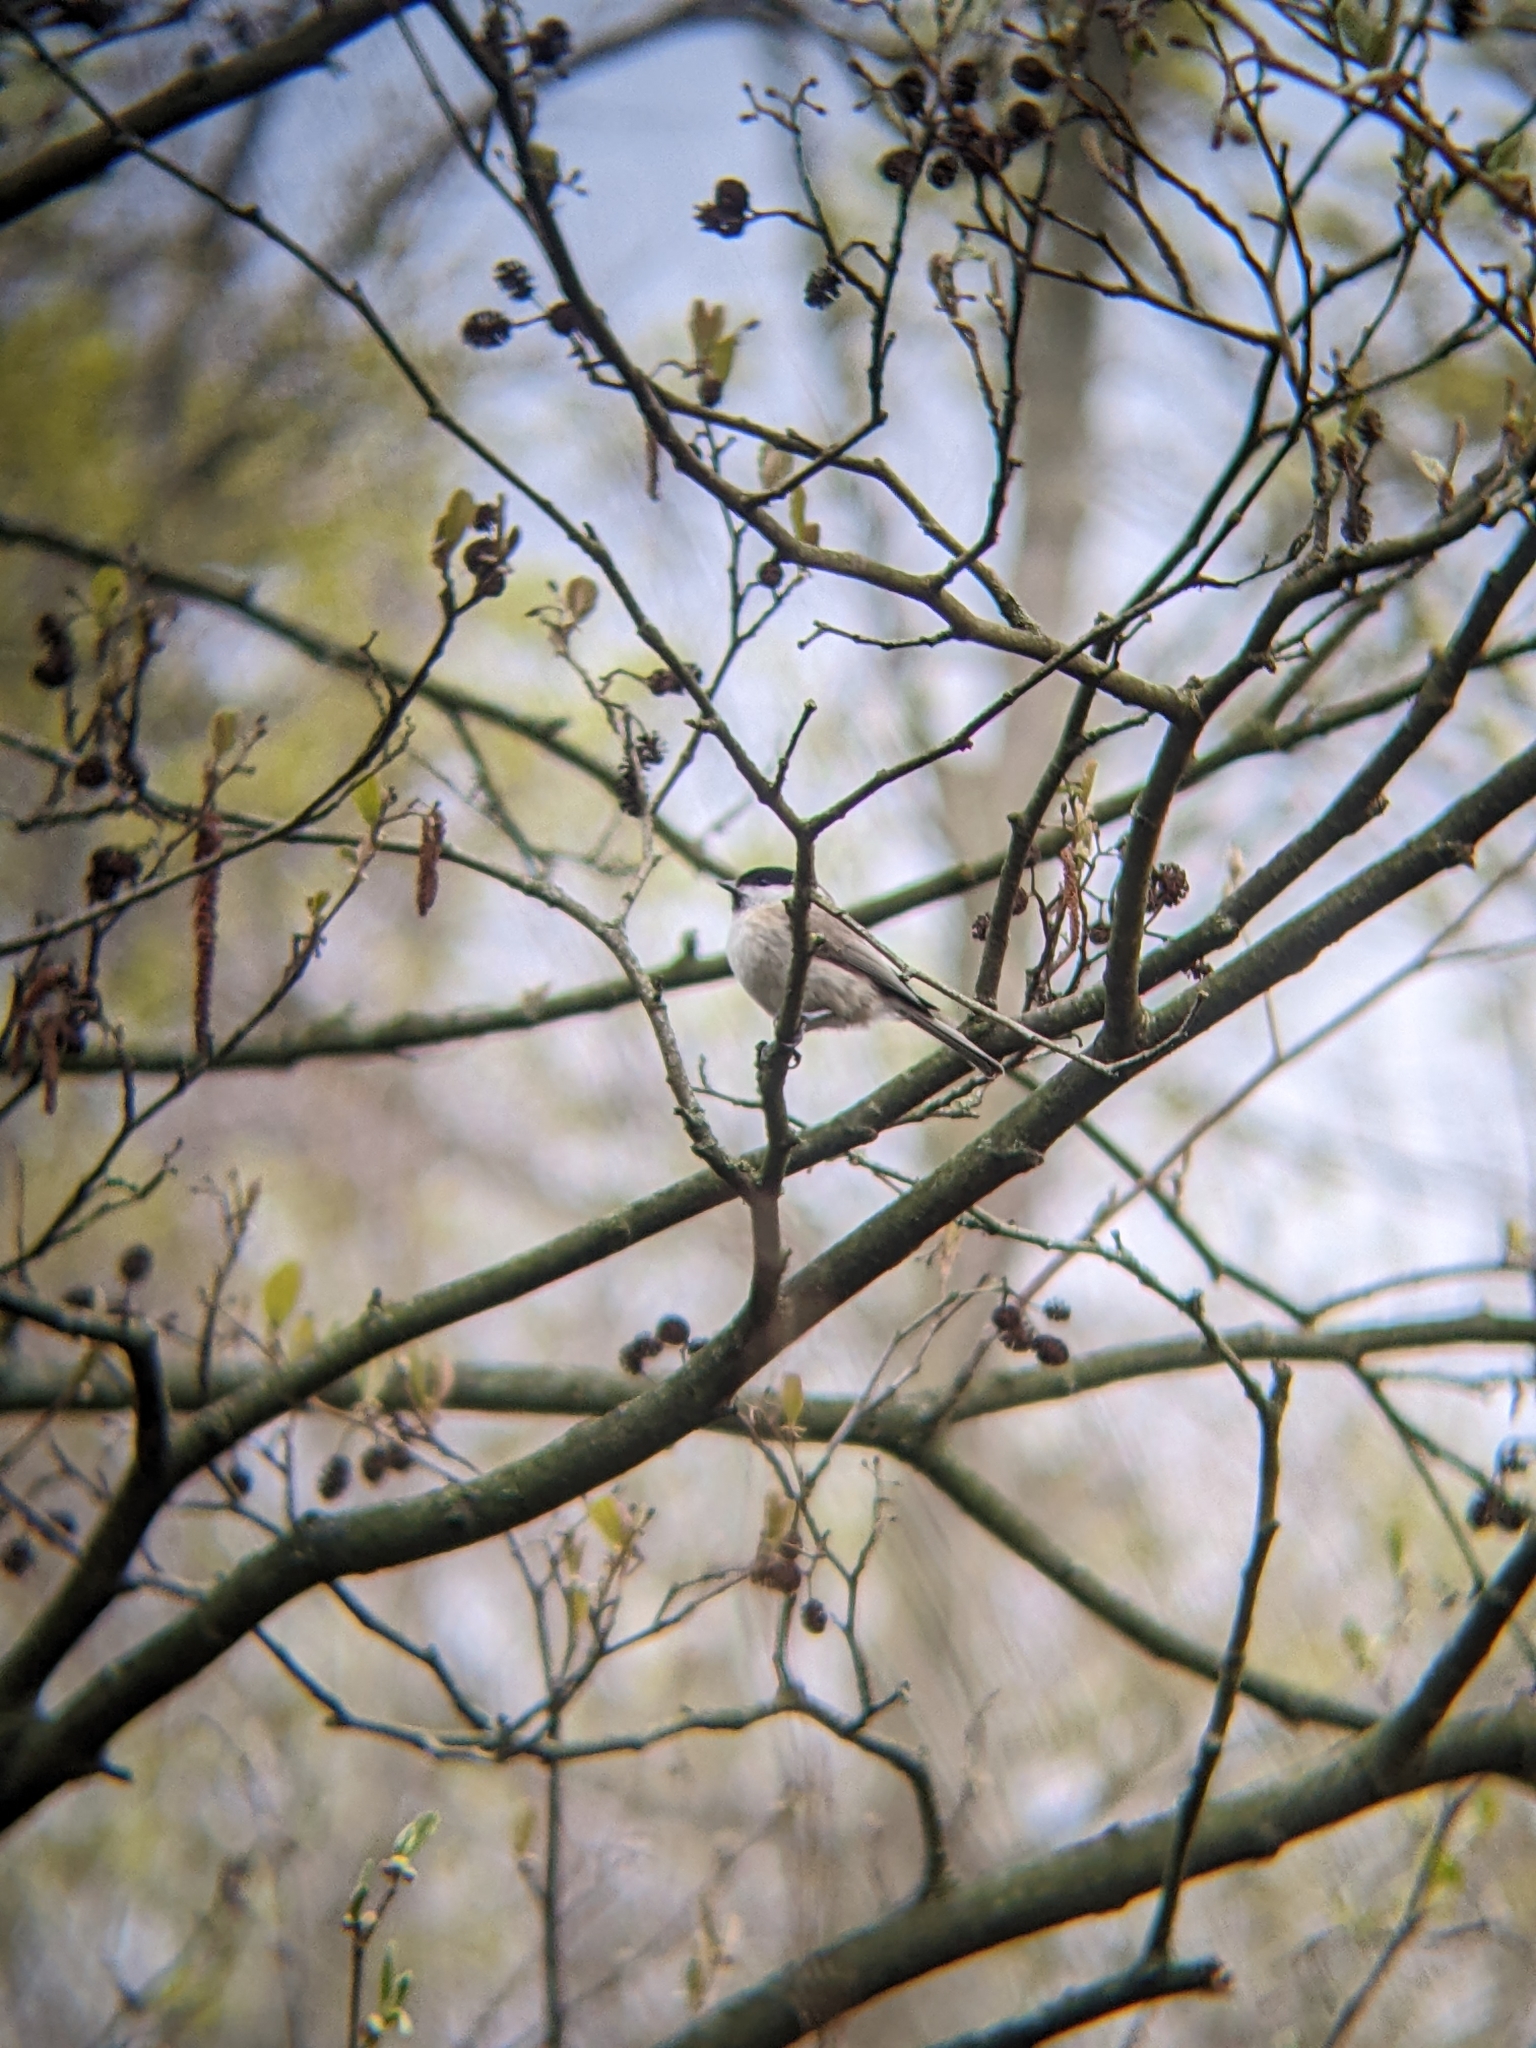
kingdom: Animalia
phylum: Chordata
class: Aves
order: Passeriformes
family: Paridae
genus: Poecile
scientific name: Poecile palustris
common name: Marsh tit
